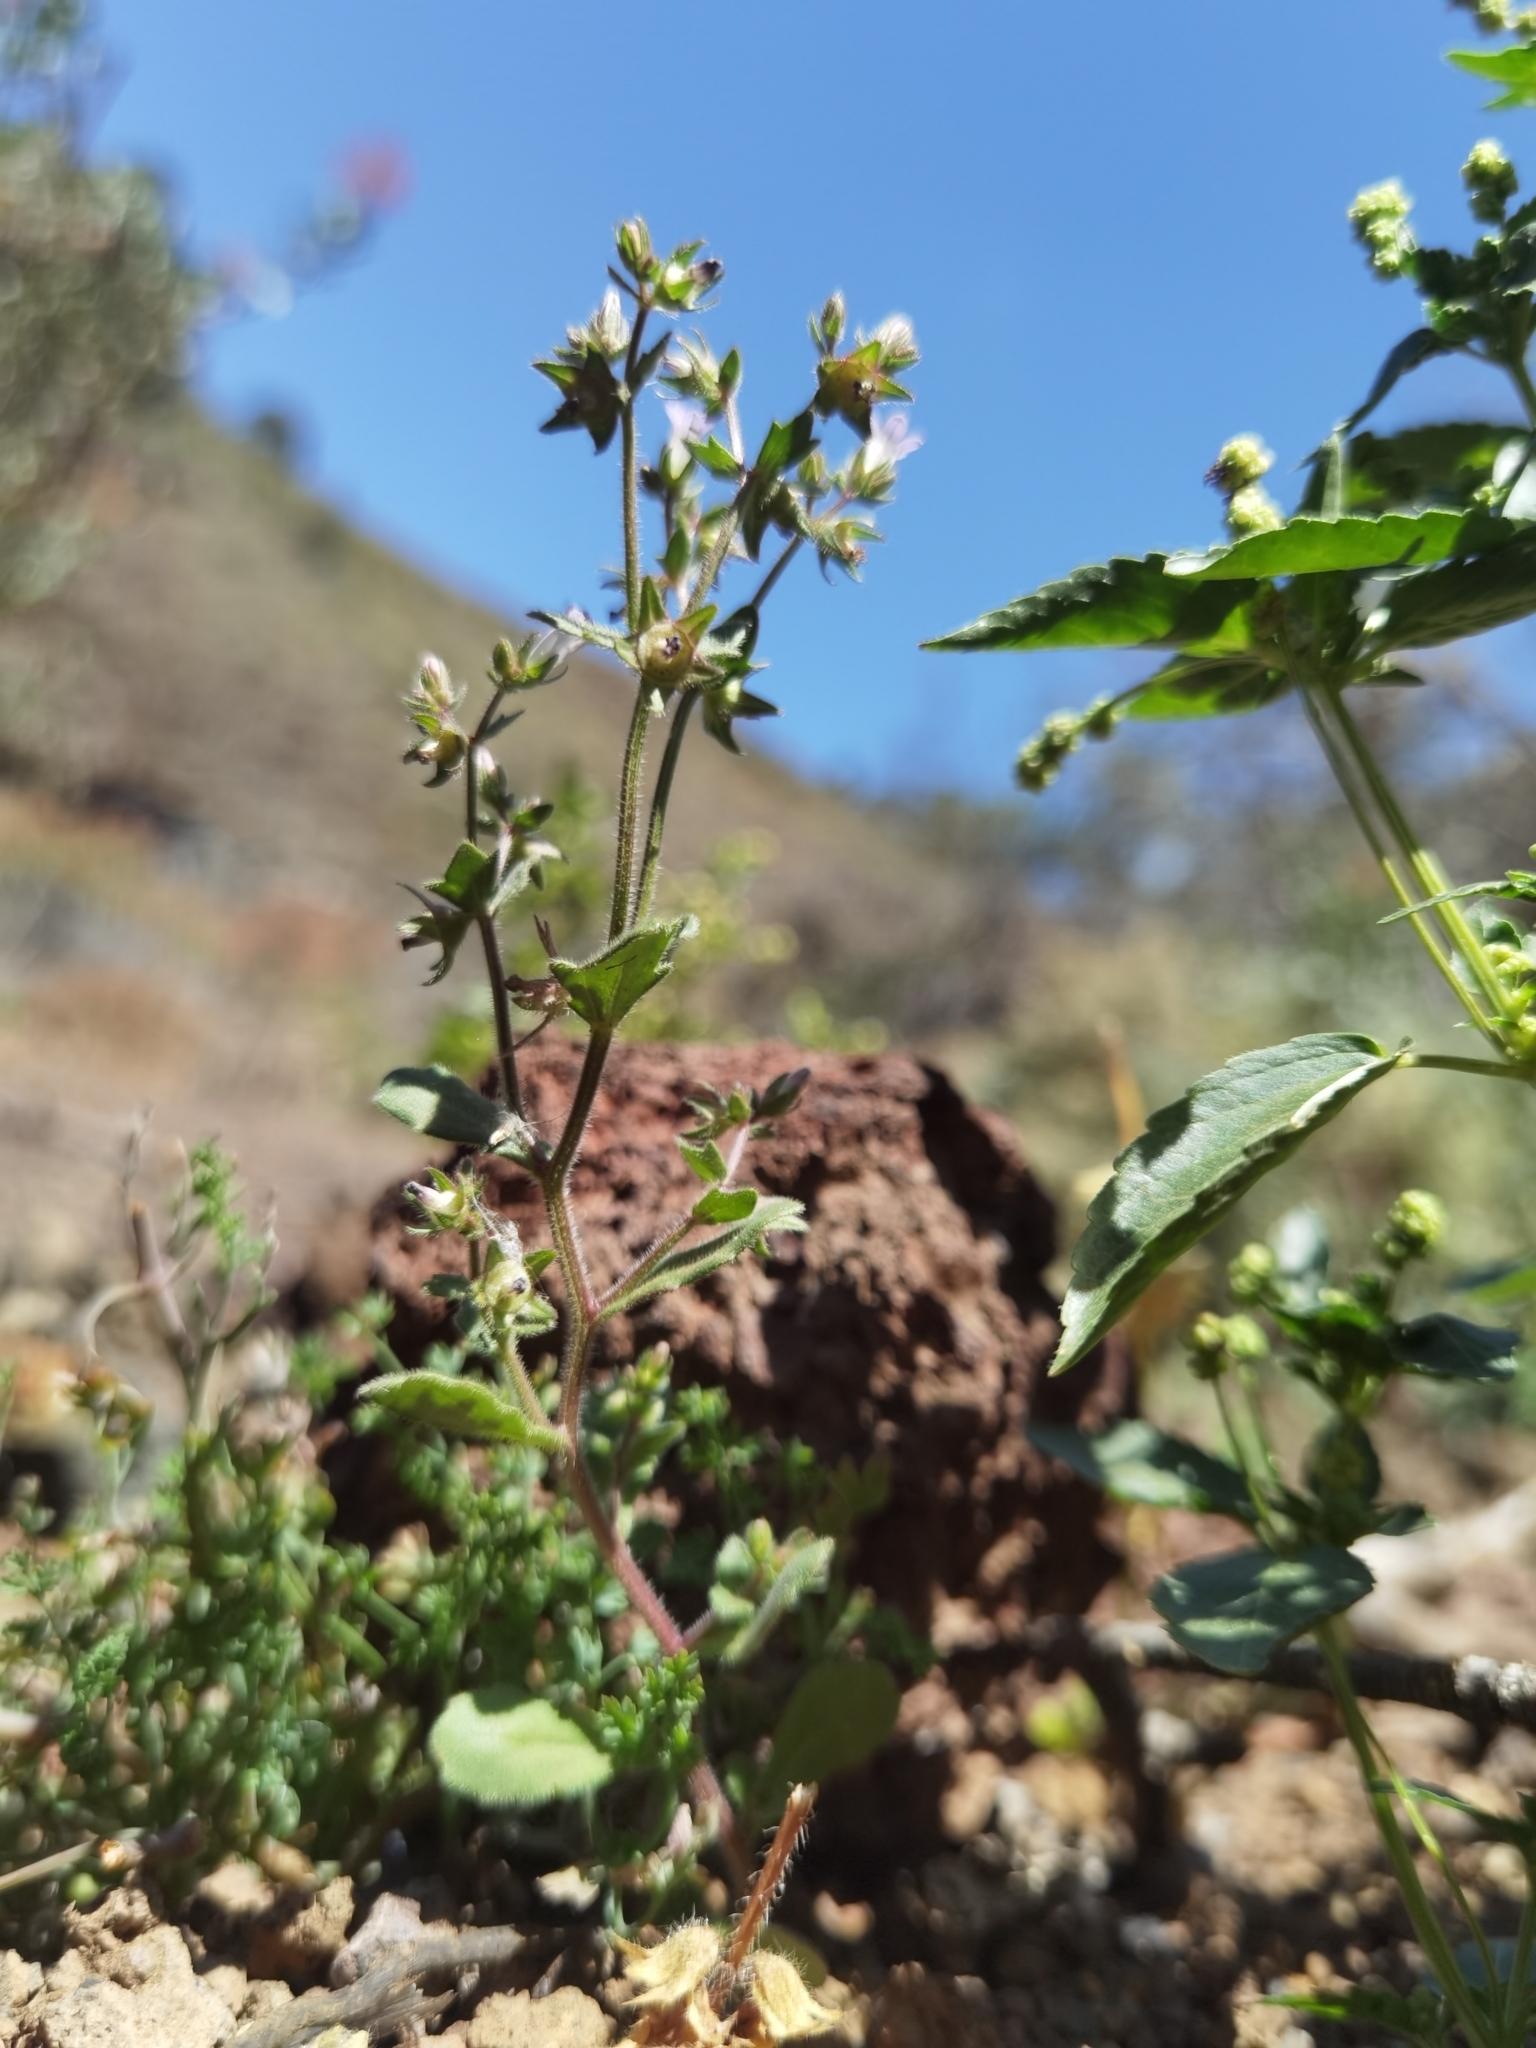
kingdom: Plantae
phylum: Tracheophyta
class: Magnoliopsida
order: Asterales
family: Campanulaceae
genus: Campanula
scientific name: Campanula erinus
